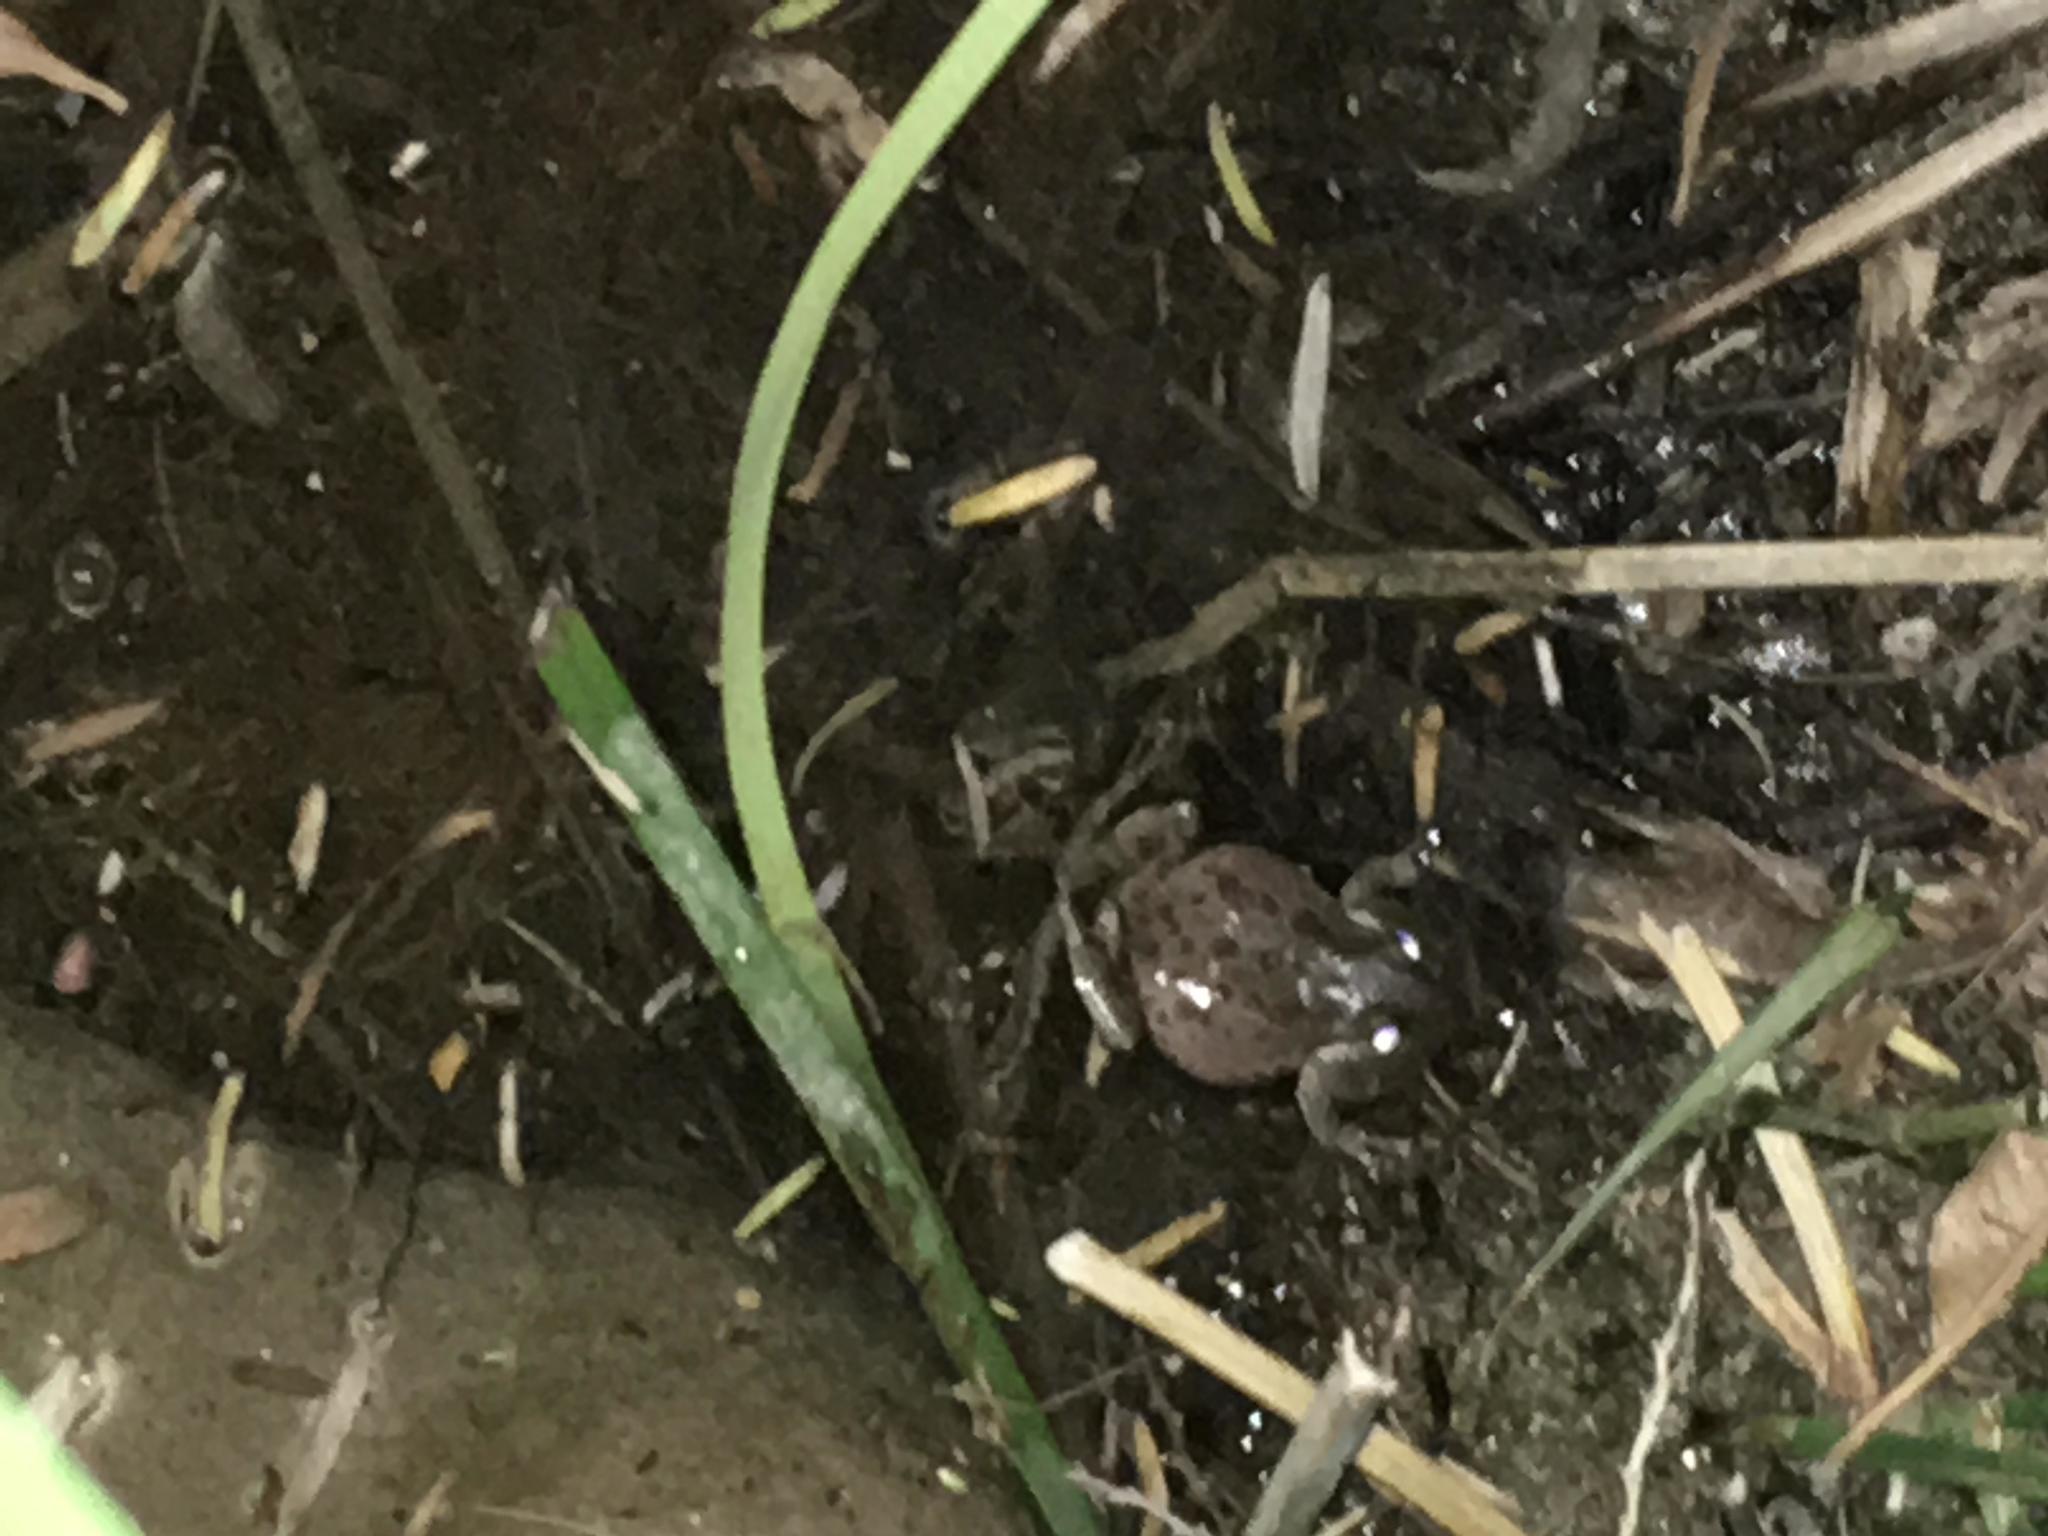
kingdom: Animalia
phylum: Chordata
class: Amphibia
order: Anura
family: Hylidae
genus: Pseudacris
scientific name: Pseudacris regilla
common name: Pacific chorus frog
